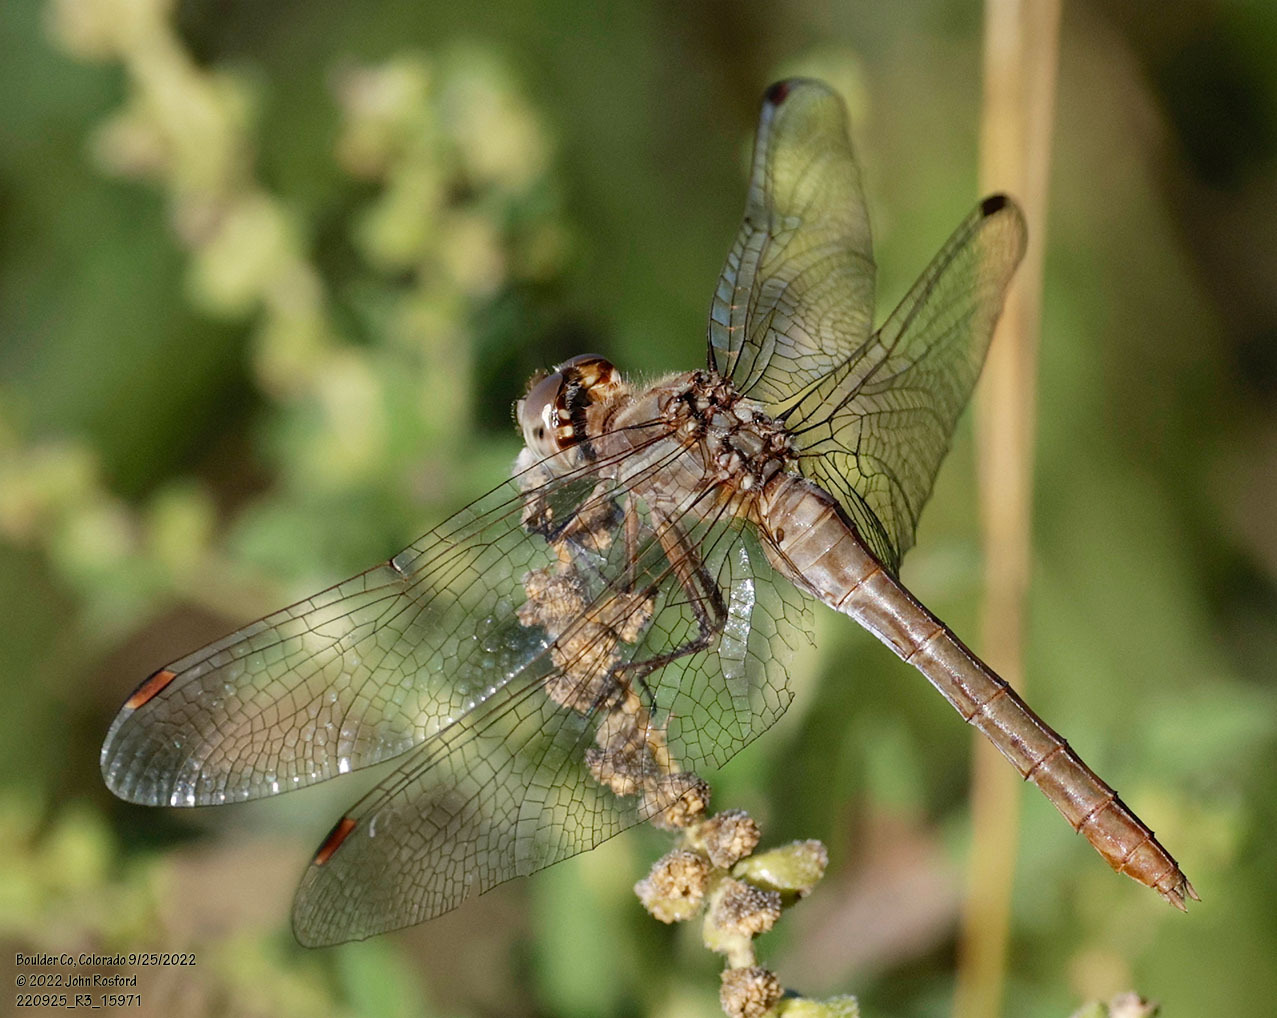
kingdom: Animalia
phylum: Arthropoda
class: Insecta
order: Odonata
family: Libellulidae
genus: Sympetrum
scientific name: Sympetrum pallipes
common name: Striped meadowhawk
